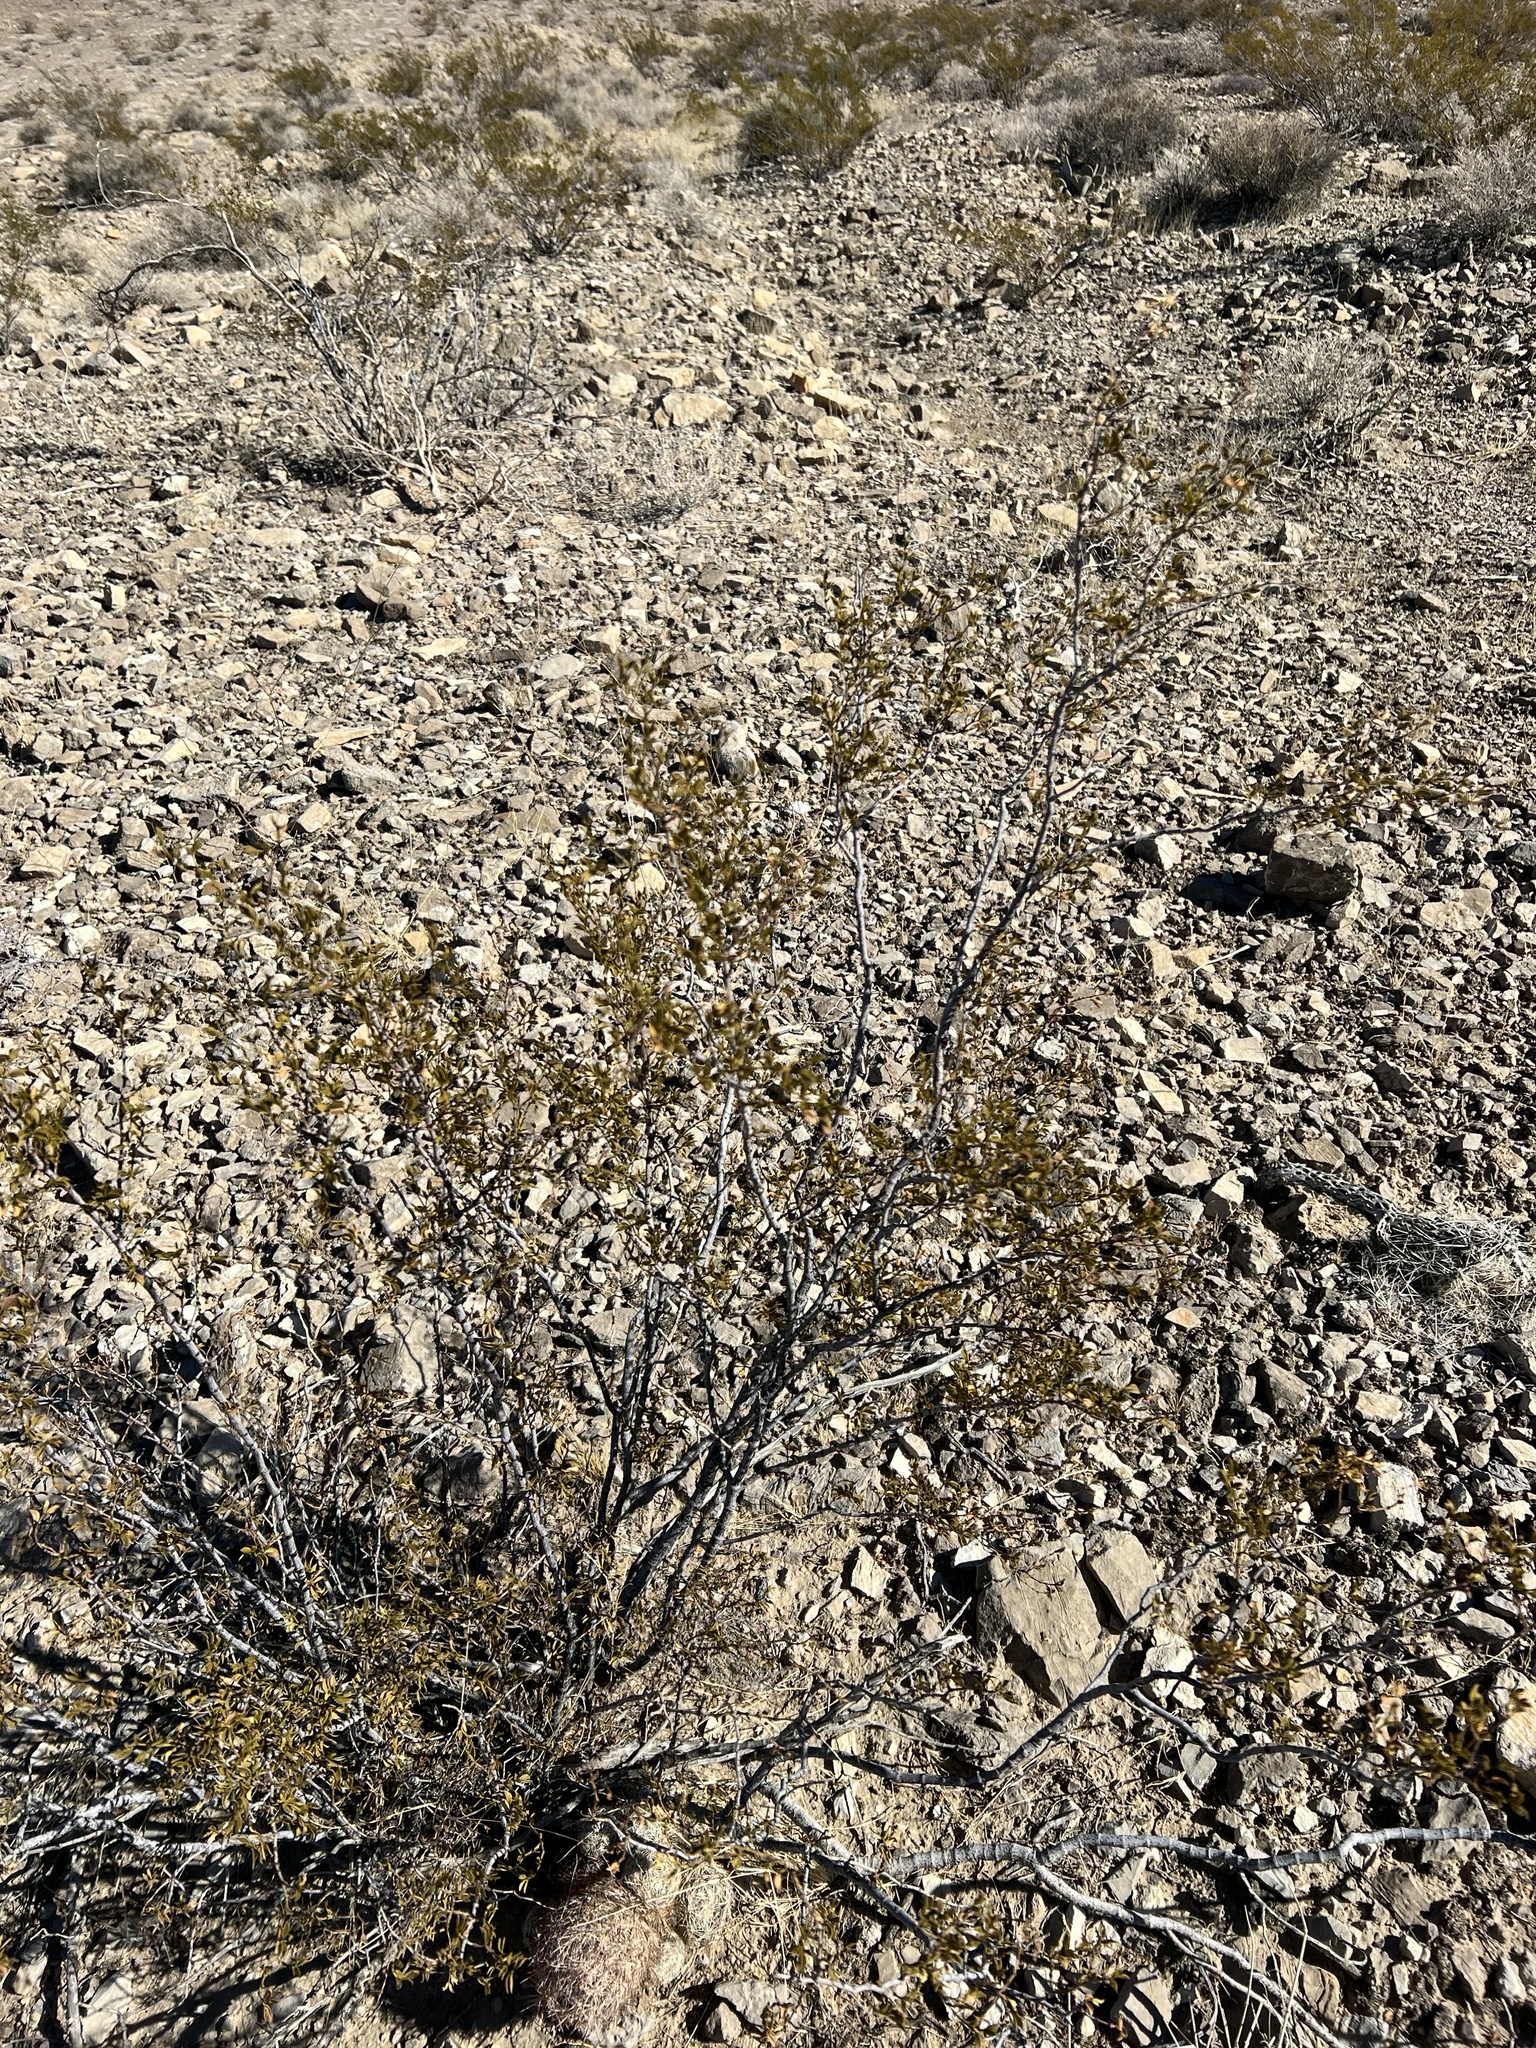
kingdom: Plantae
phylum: Tracheophyta
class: Magnoliopsida
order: Zygophyllales
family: Zygophyllaceae
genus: Larrea
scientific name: Larrea tridentata
